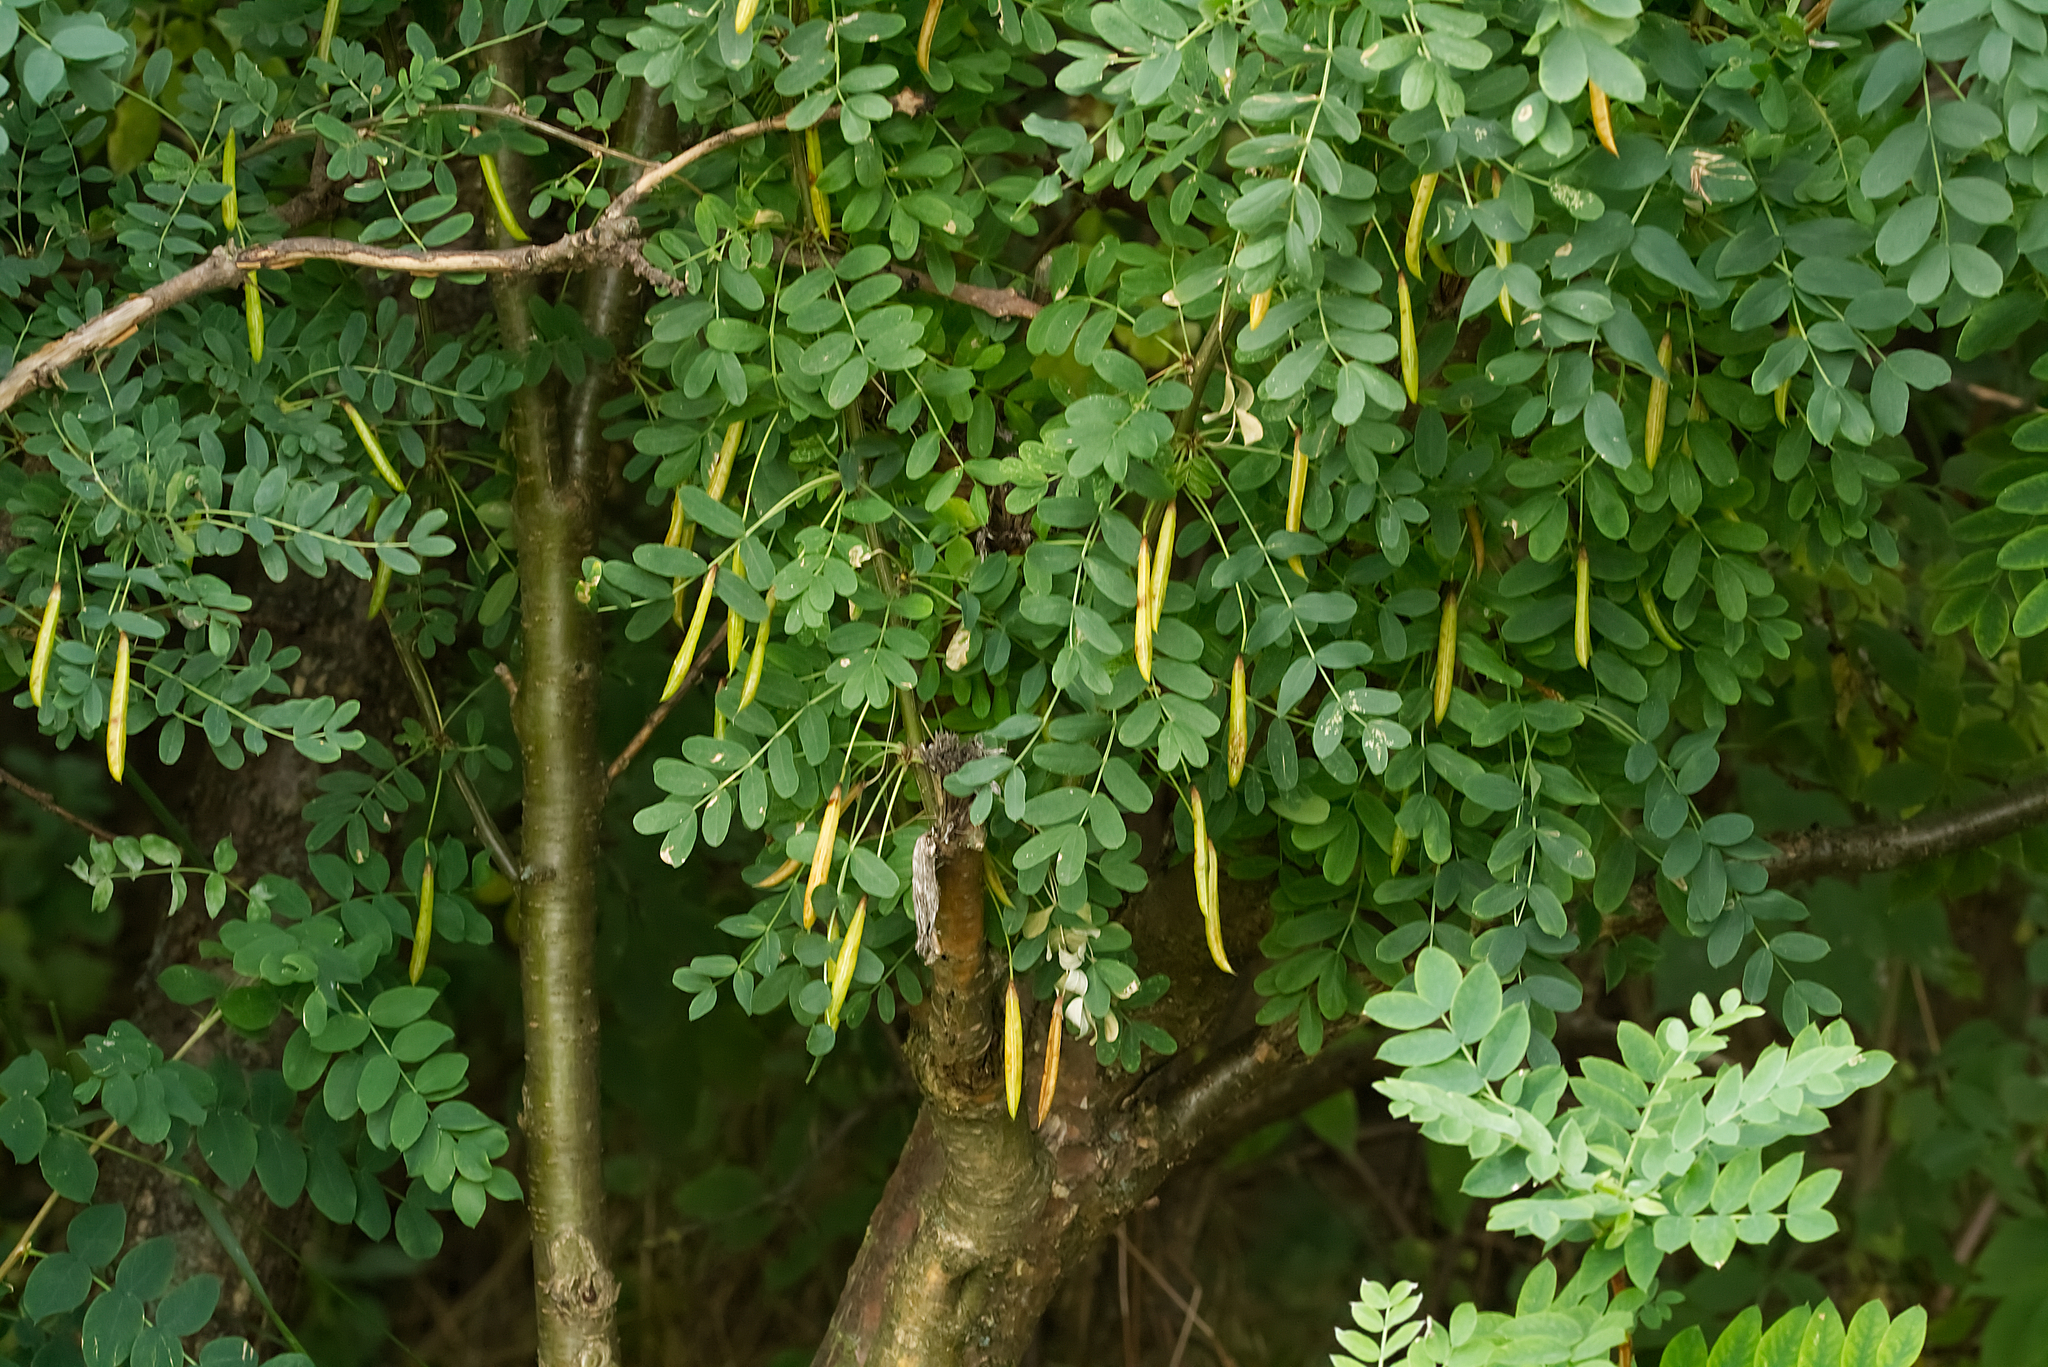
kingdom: Plantae
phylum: Tracheophyta
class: Magnoliopsida
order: Fabales
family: Fabaceae
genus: Caragana
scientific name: Caragana arborescens
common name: Siberian peashrub
